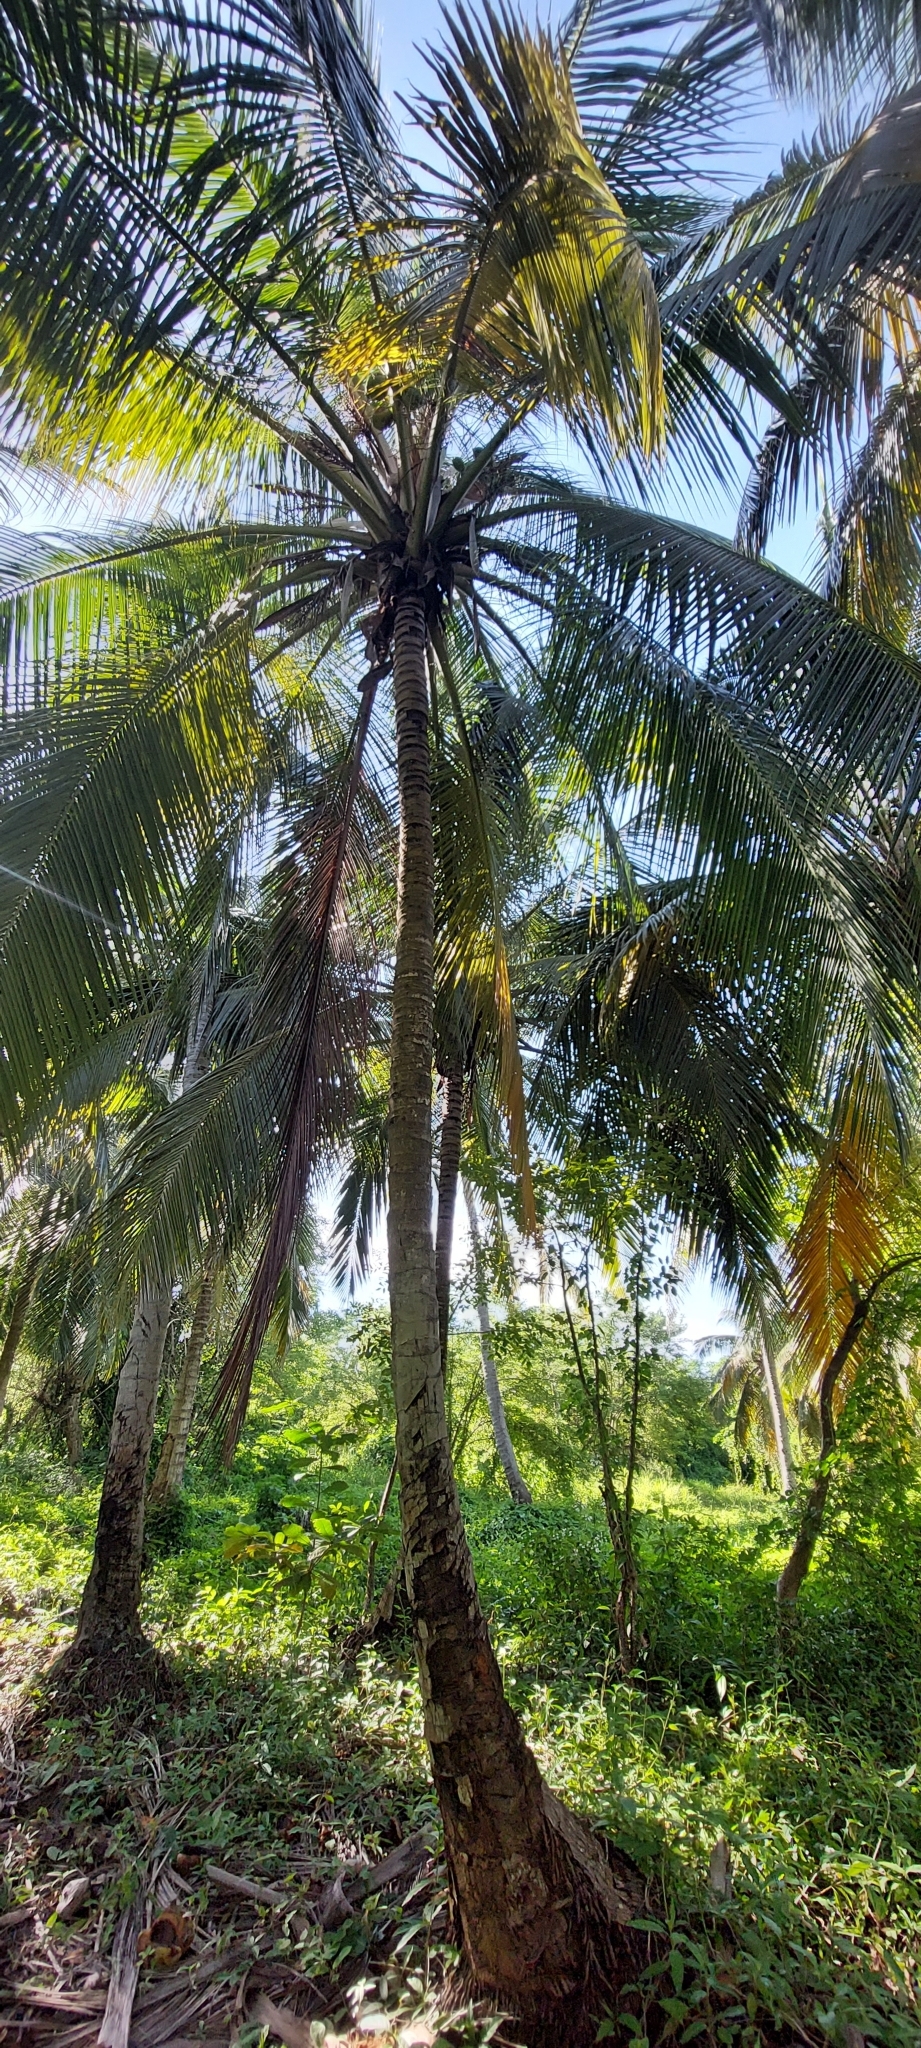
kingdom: Plantae
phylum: Tracheophyta
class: Liliopsida
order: Arecales
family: Arecaceae
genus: Cocos
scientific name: Cocos nucifera
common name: Coconut palm
